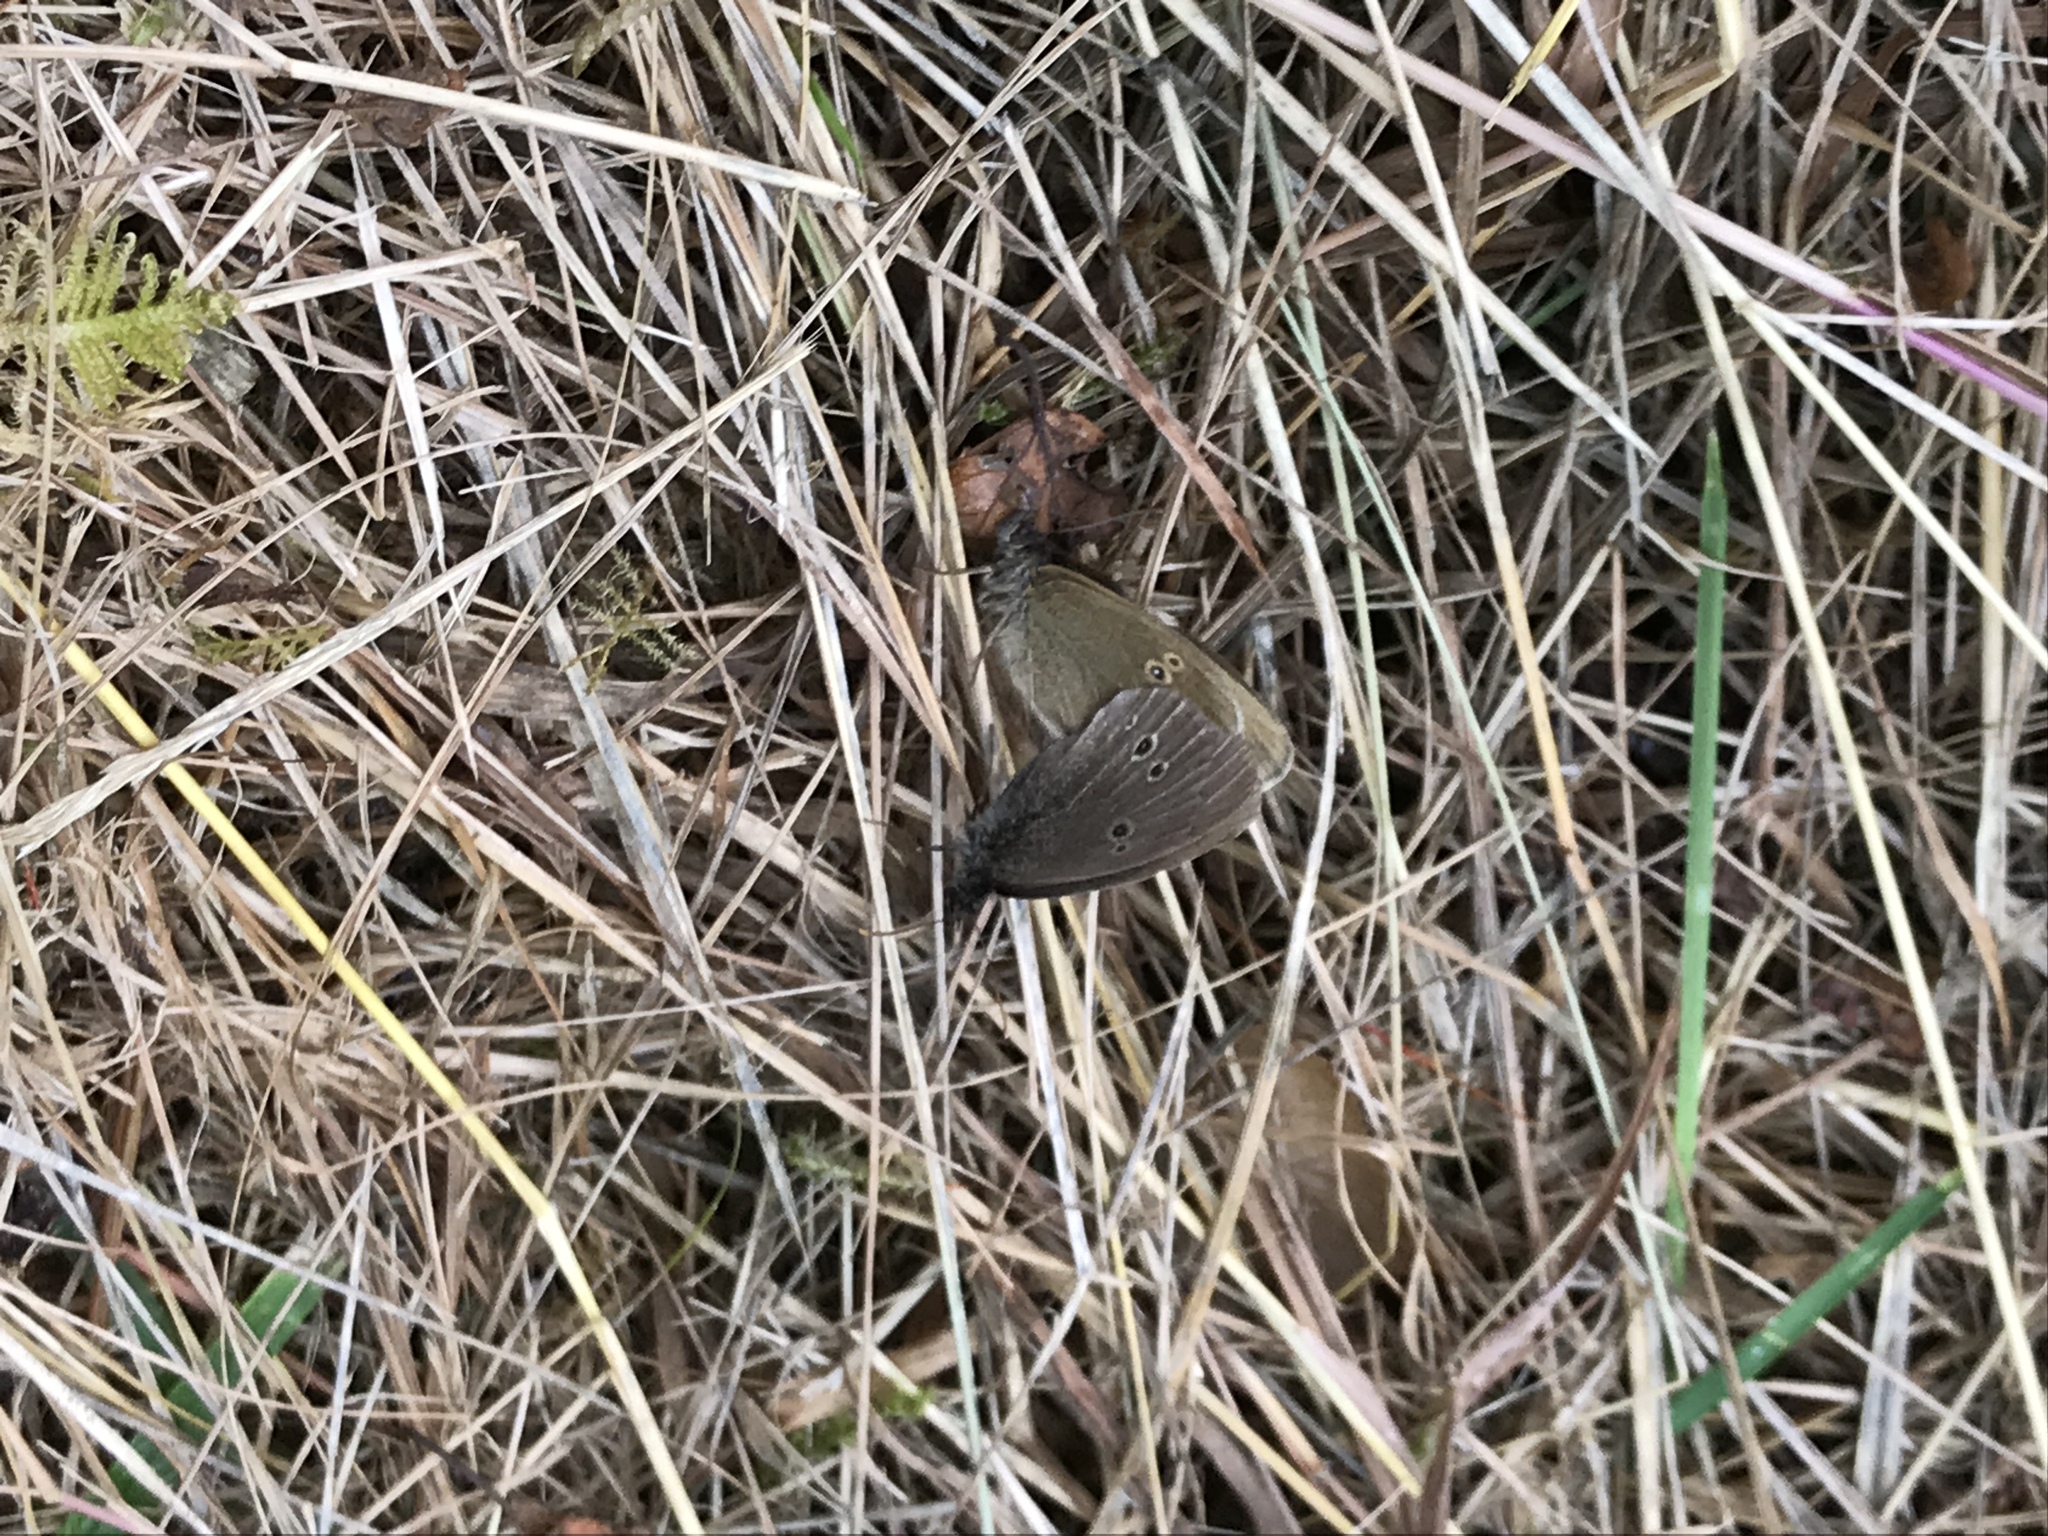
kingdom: Animalia
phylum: Arthropoda
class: Insecta
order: Lepidoptera
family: Nymphalidae
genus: Aphantopus
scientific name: Aphantopus hyperantus
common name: Ringlet
